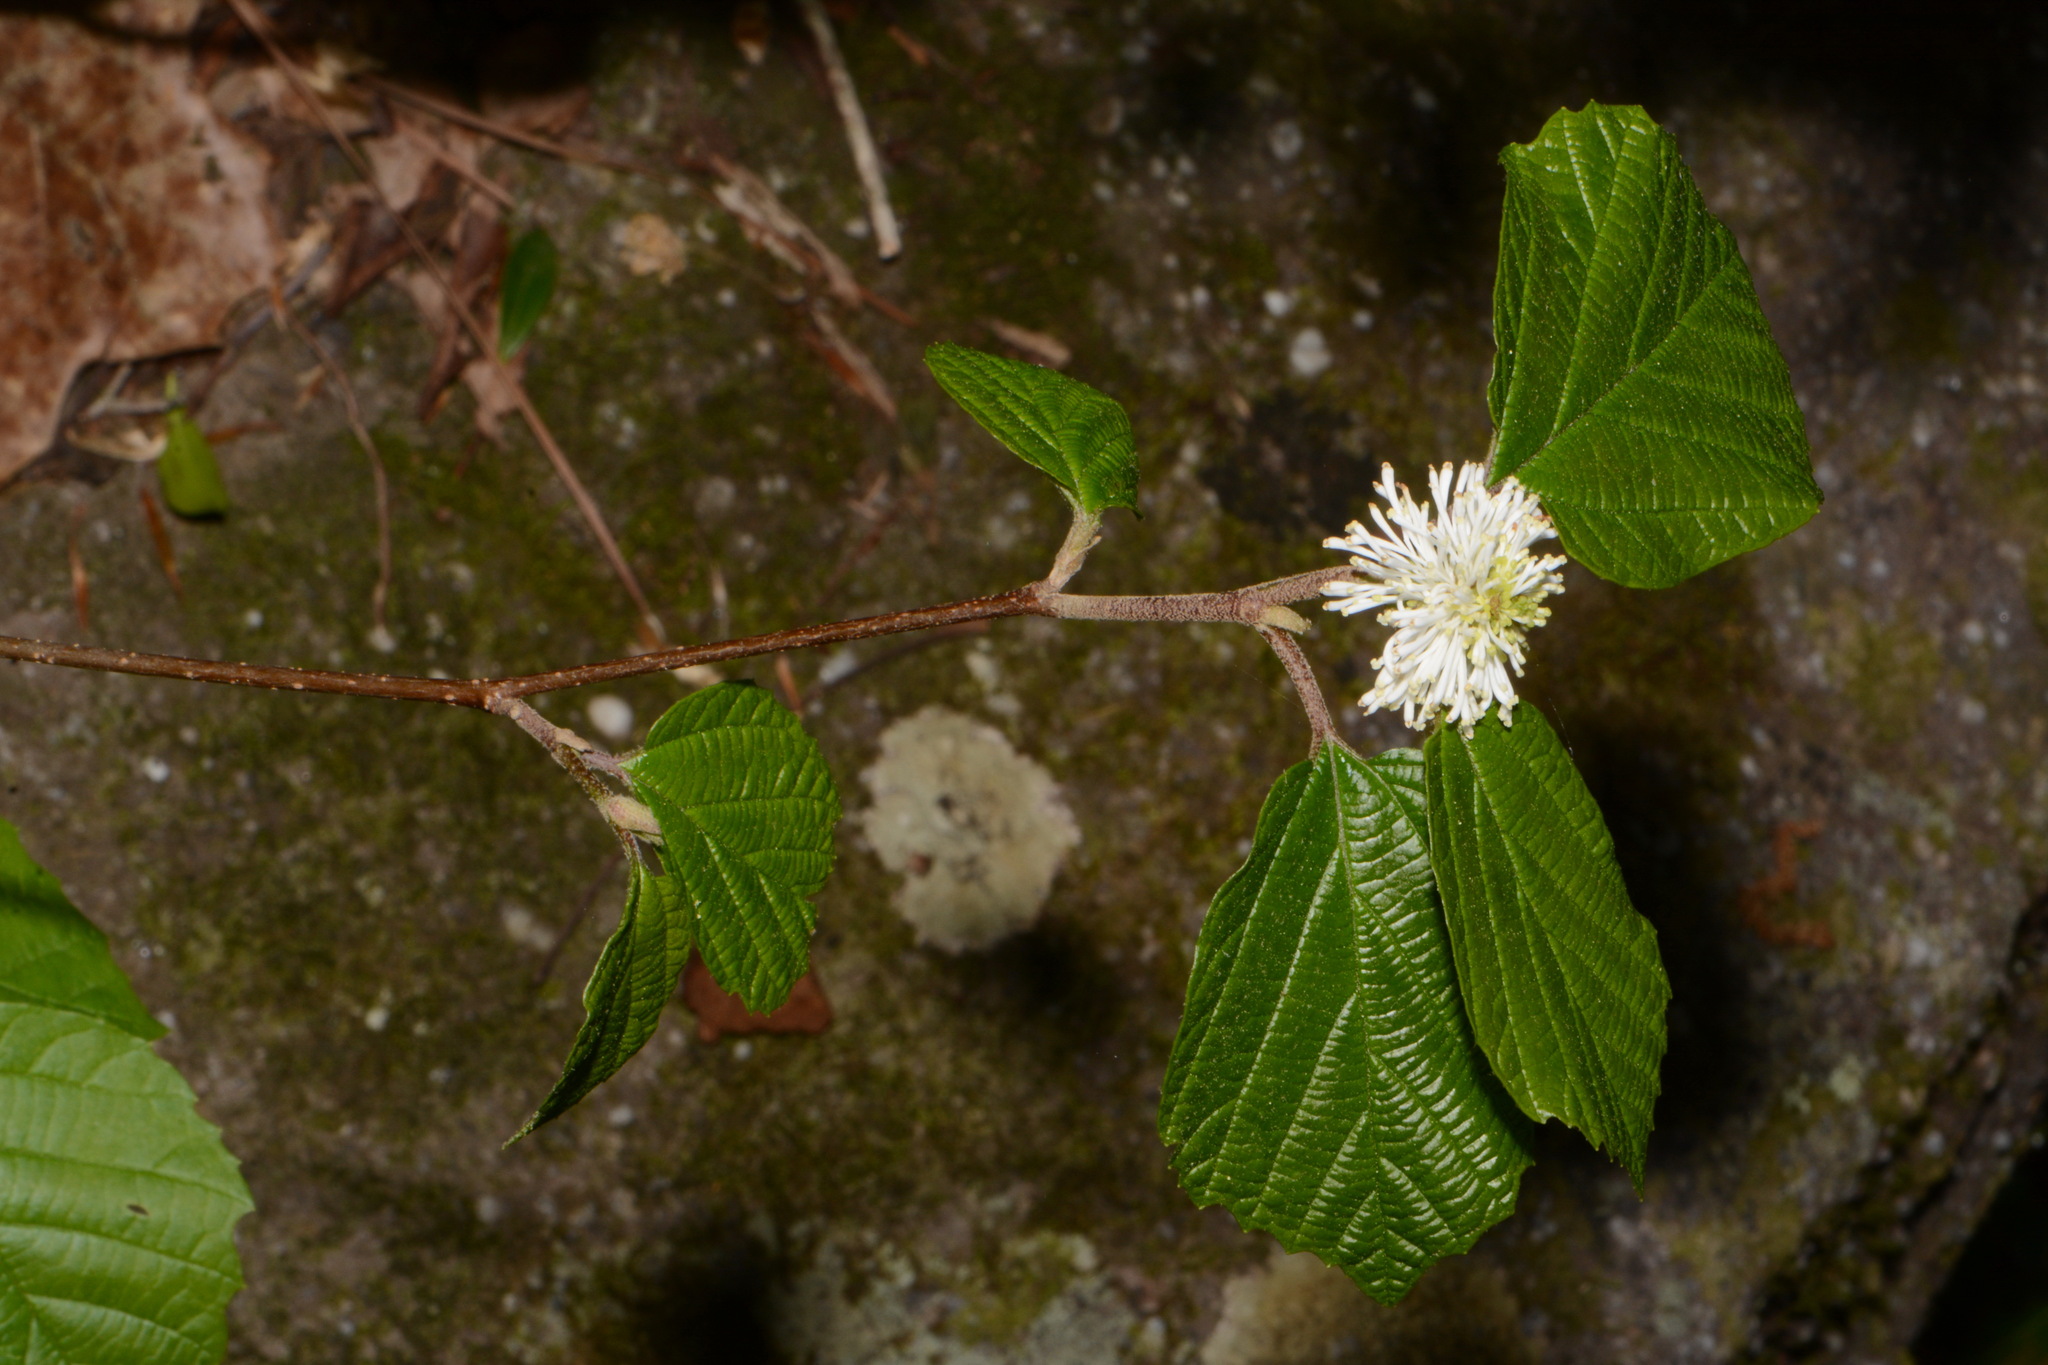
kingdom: Plantae
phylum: Tracheophyta
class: Magnoliopsida
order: Saxifragales
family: Hamamelidaceae
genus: Fothergilla
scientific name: Fothergilla latifolia
